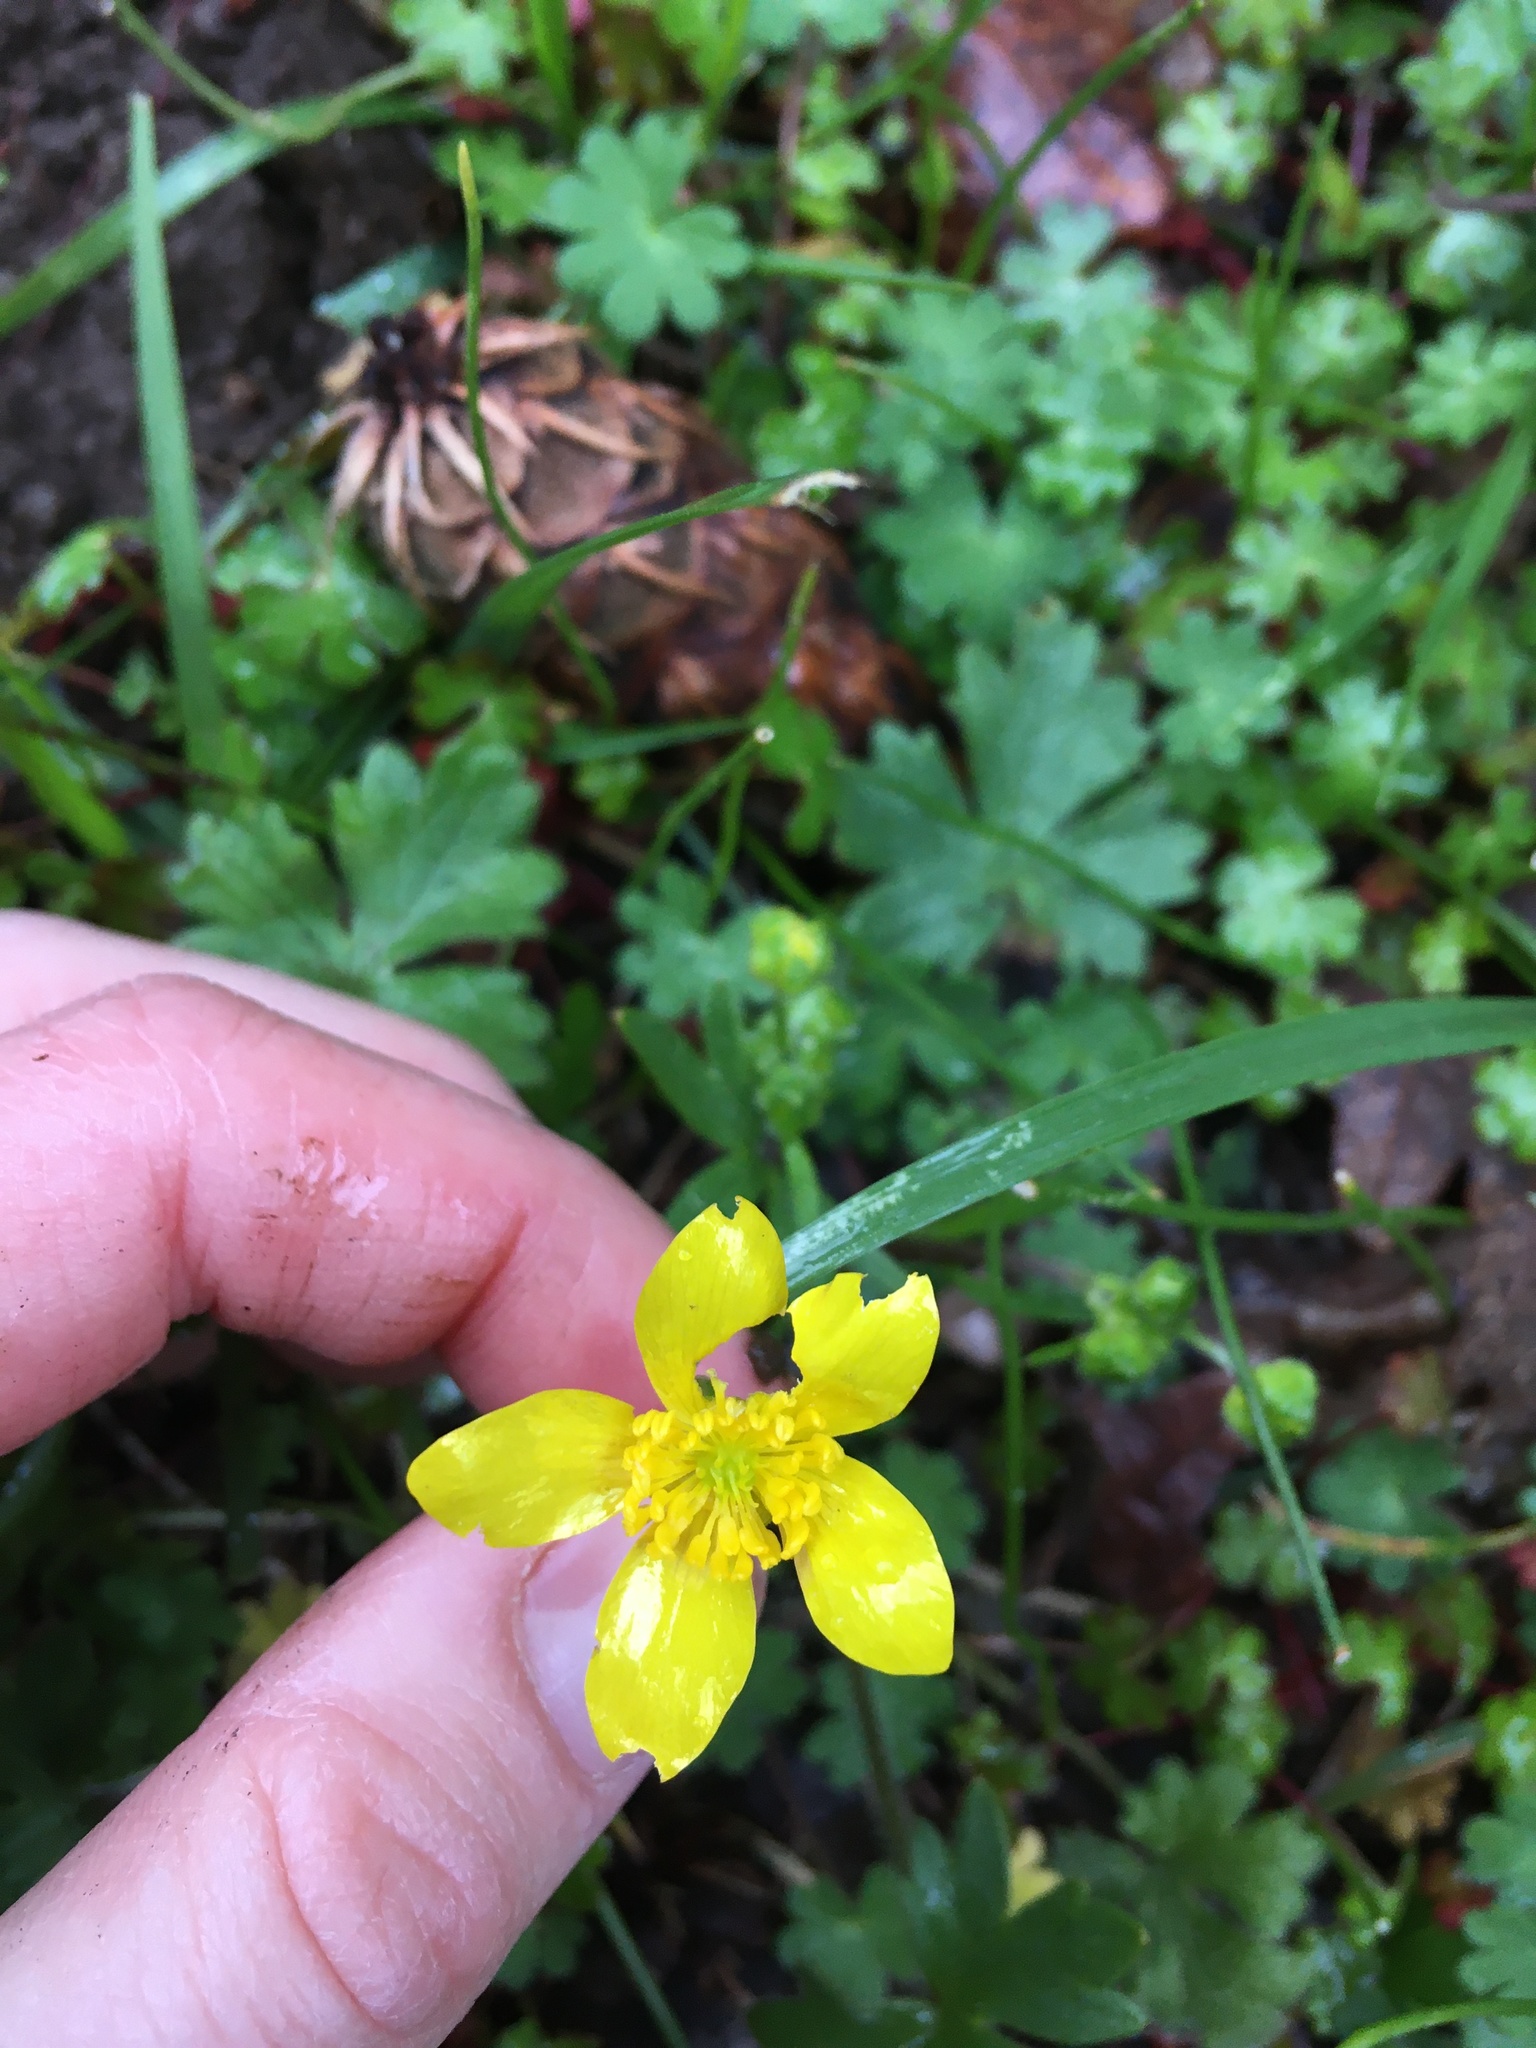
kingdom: Plantae
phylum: Tracheophyta
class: Magnoliopsida
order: Ranunculales
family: Ranunculaceae
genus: Ranunculus
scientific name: Ranunculus occidentalis
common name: Western buttercup
